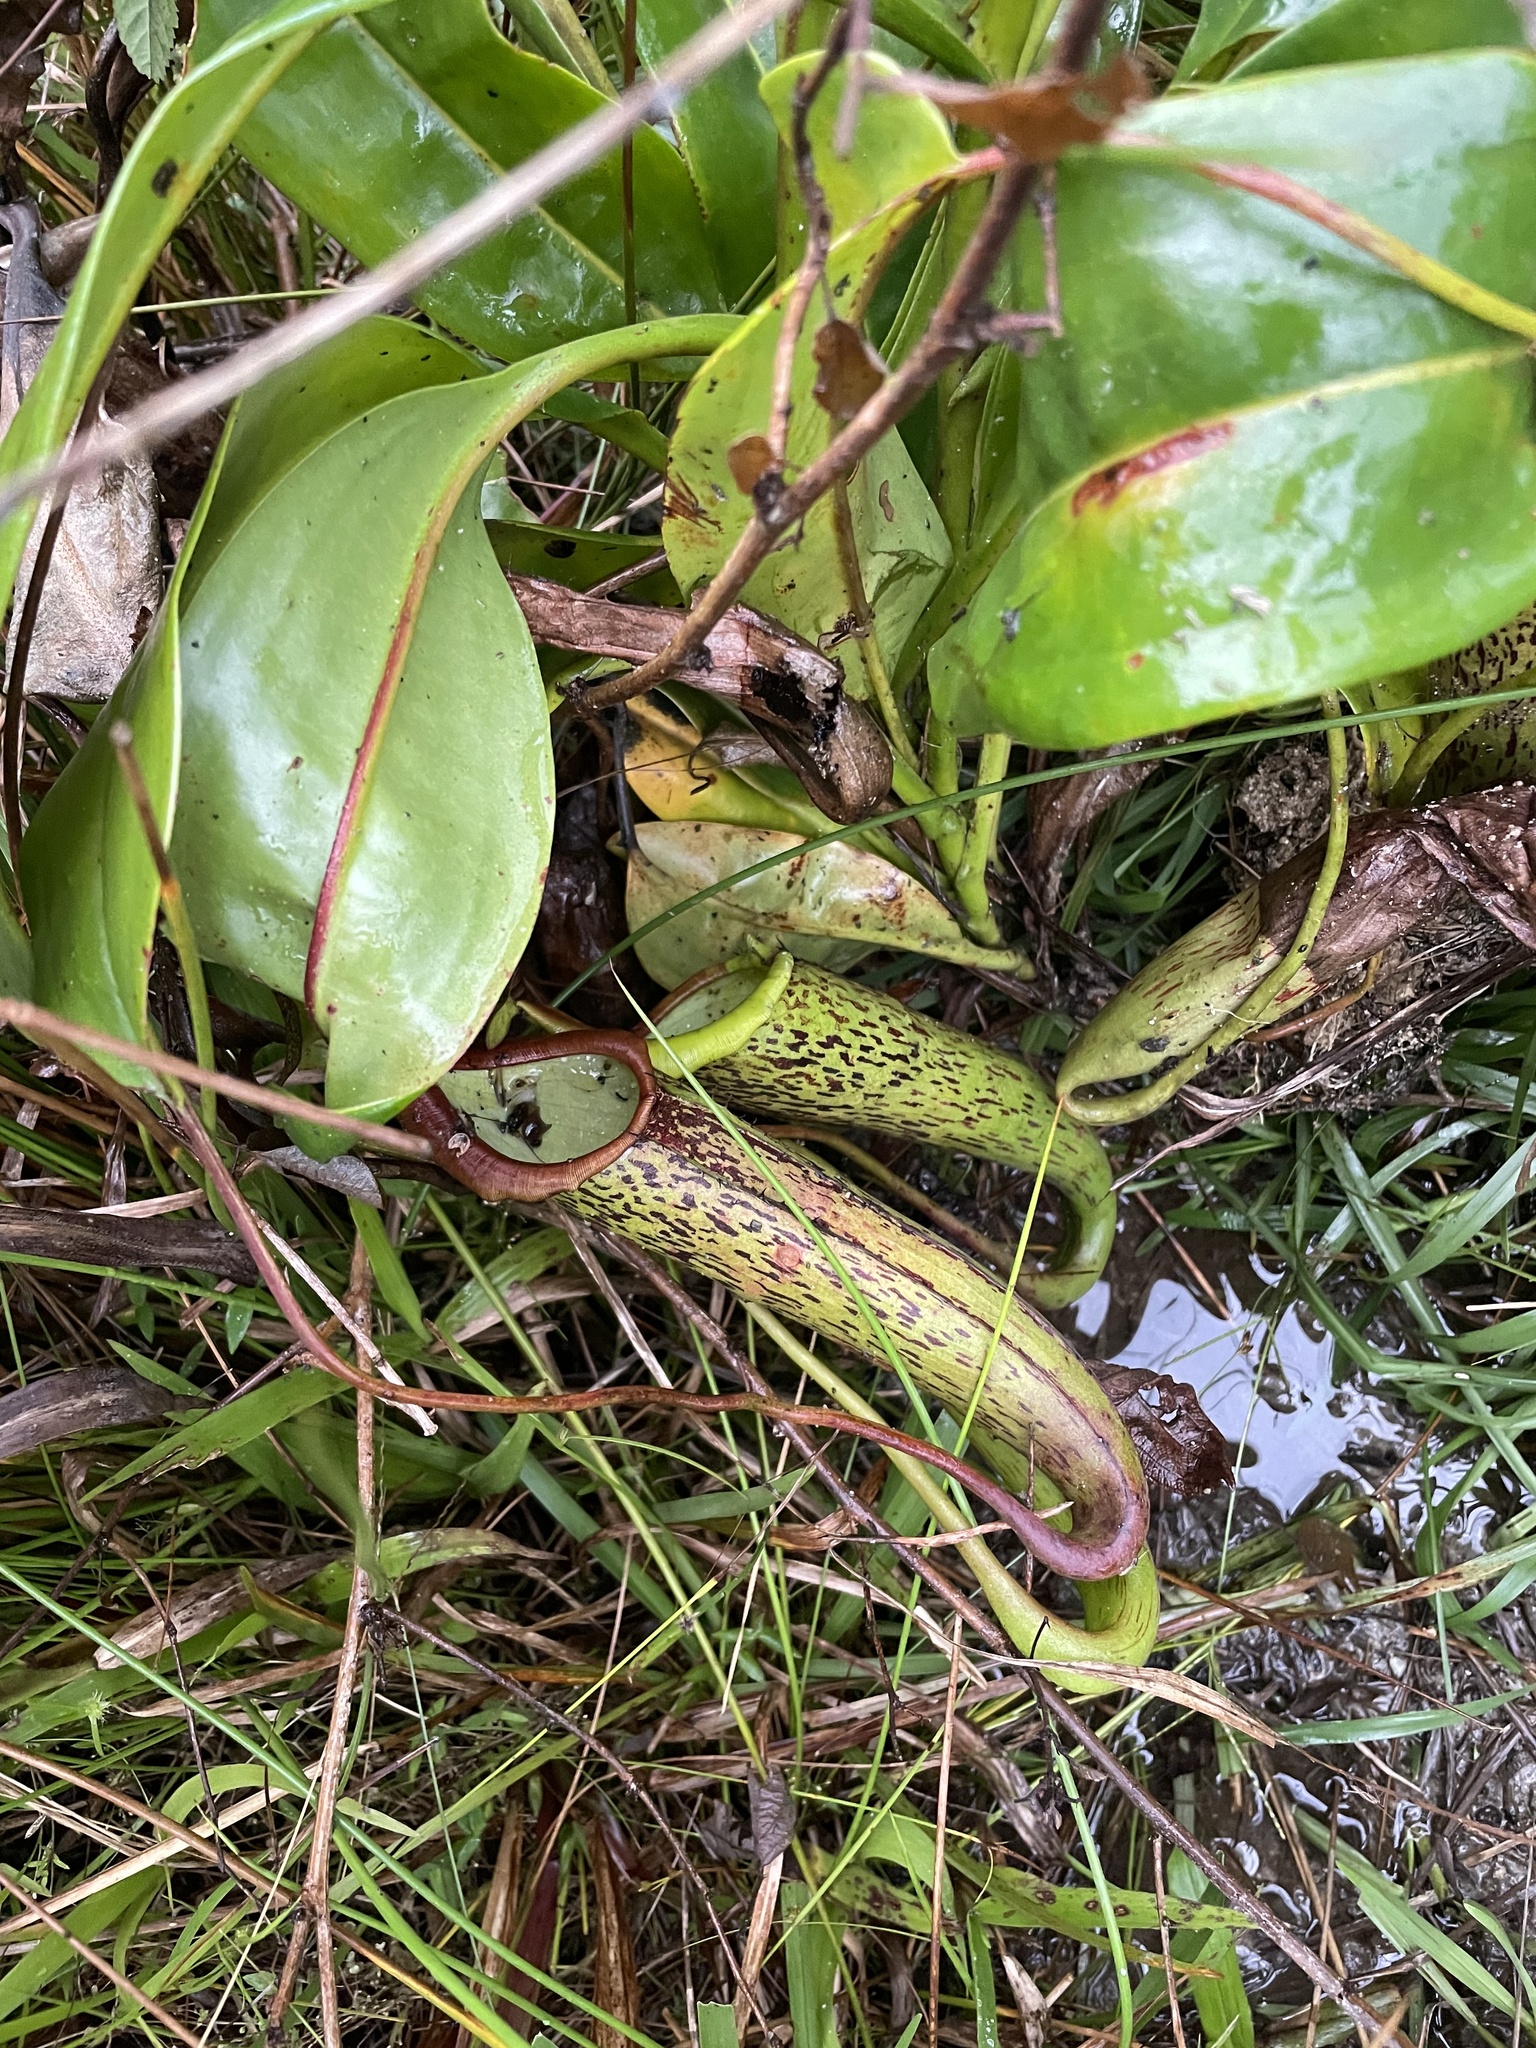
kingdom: Plantae
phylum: Tracheophyta
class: Magnoliopsida
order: Caryophyllales
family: Nepenthaceae
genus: Nepenthes
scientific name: Nepenthes maxima
